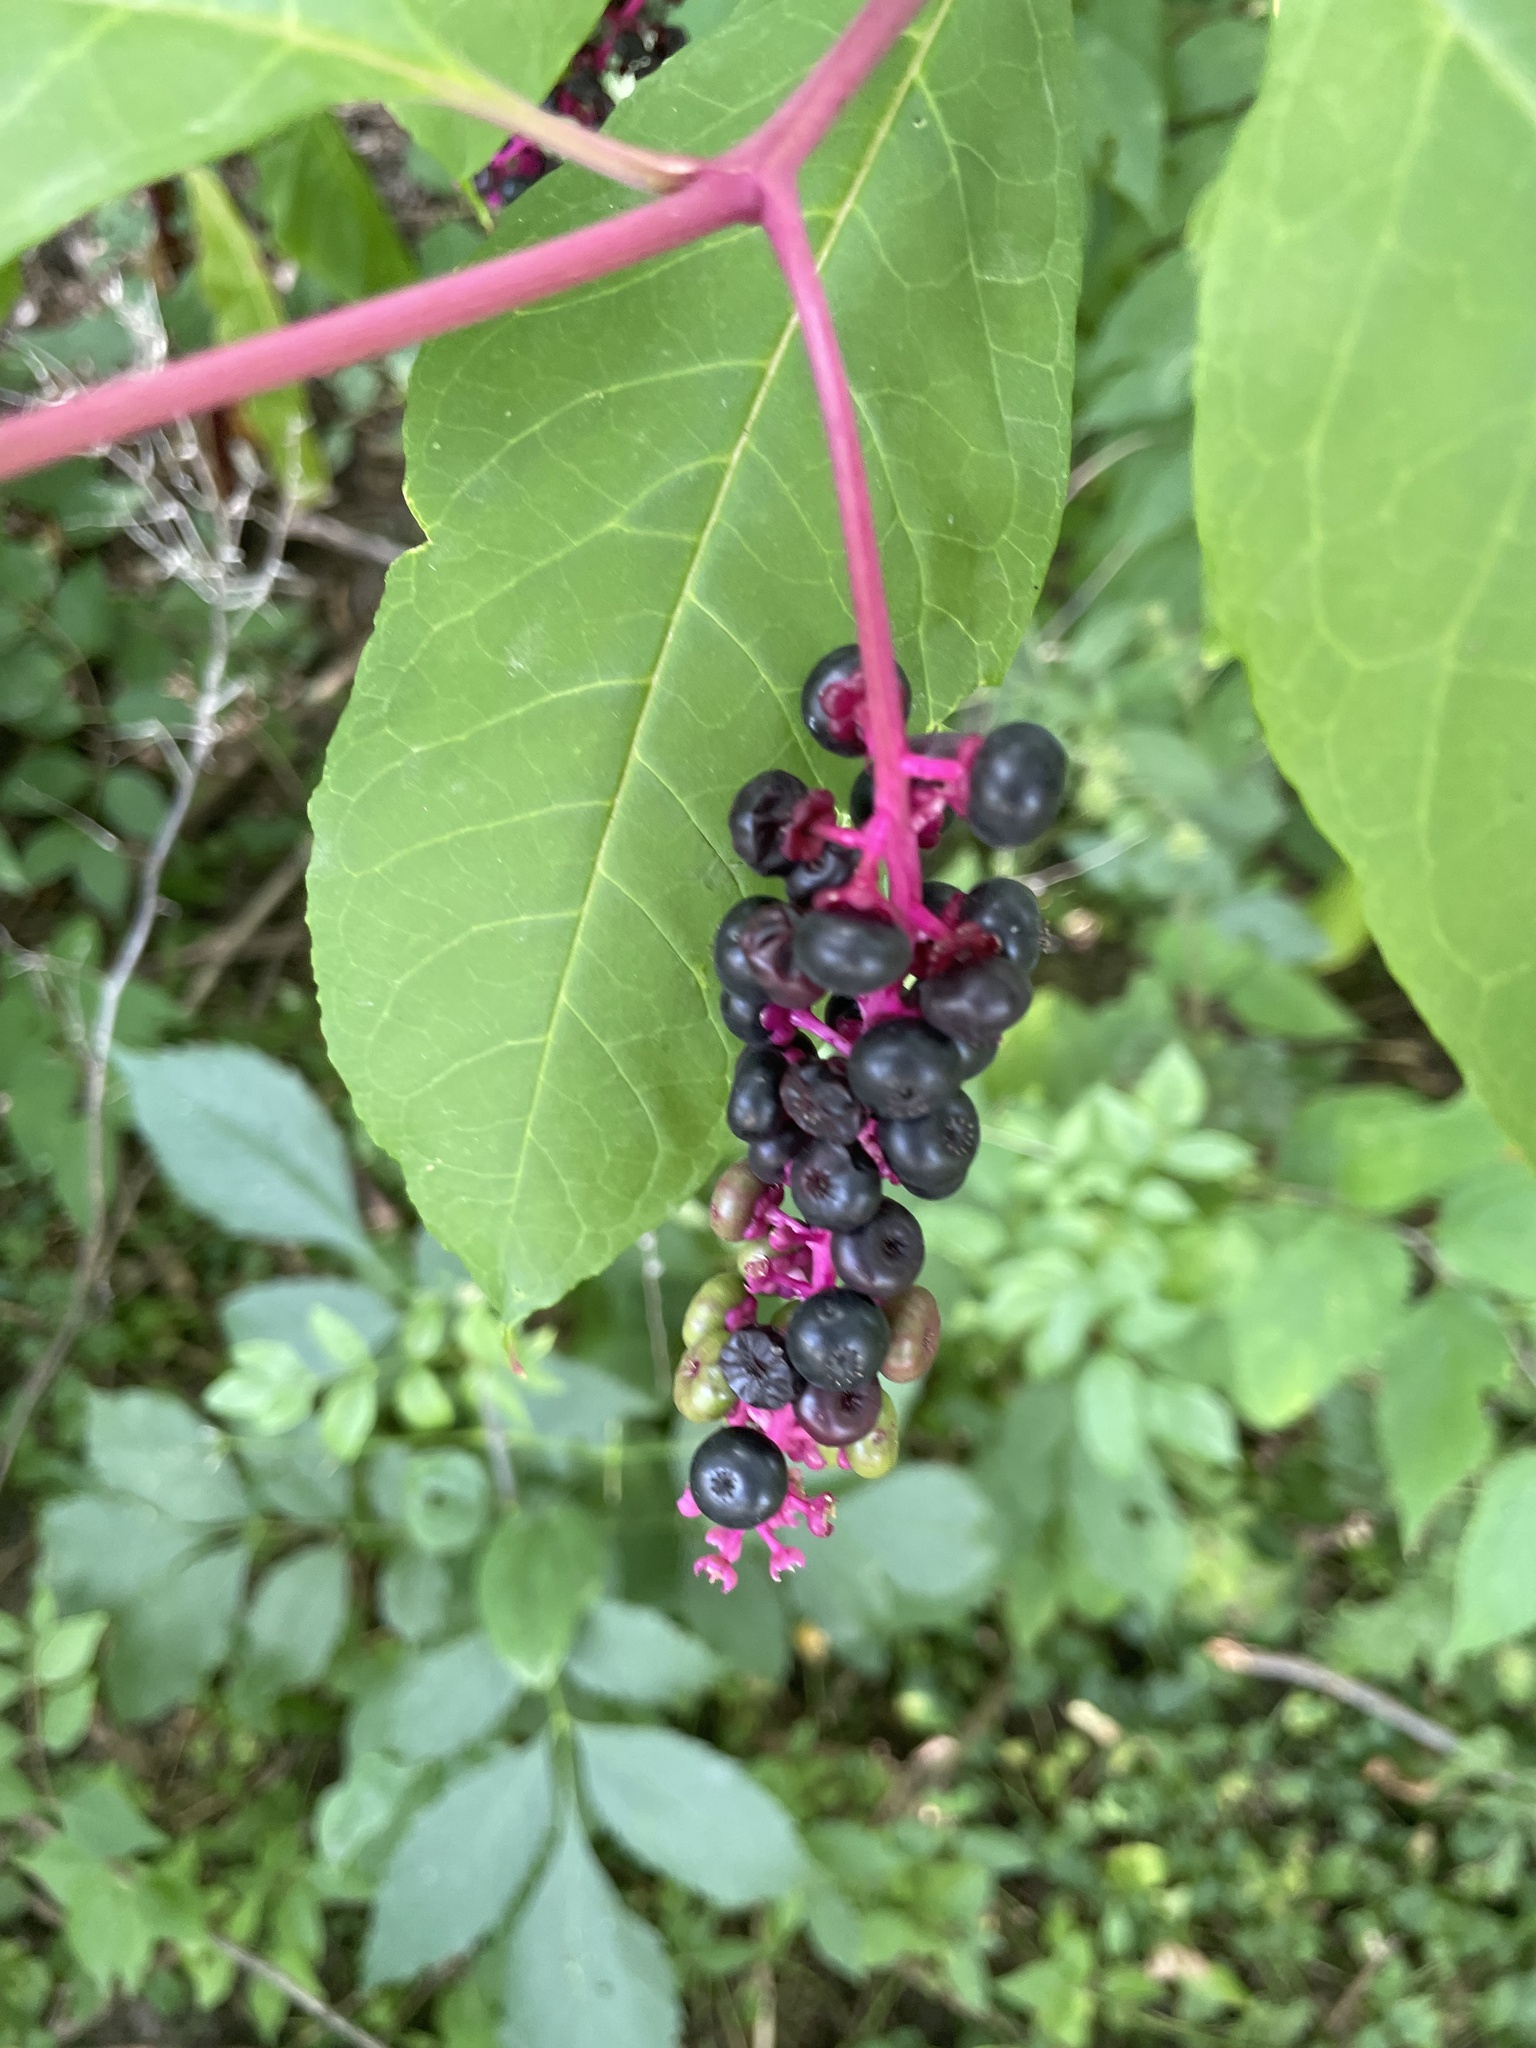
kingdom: Plantae
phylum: Tracheophyta
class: Magnoliopsida
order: Caryophyllales
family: Phytolaccaceae
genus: Phytolacca
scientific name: Phytolacca americana
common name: American pokeweed
